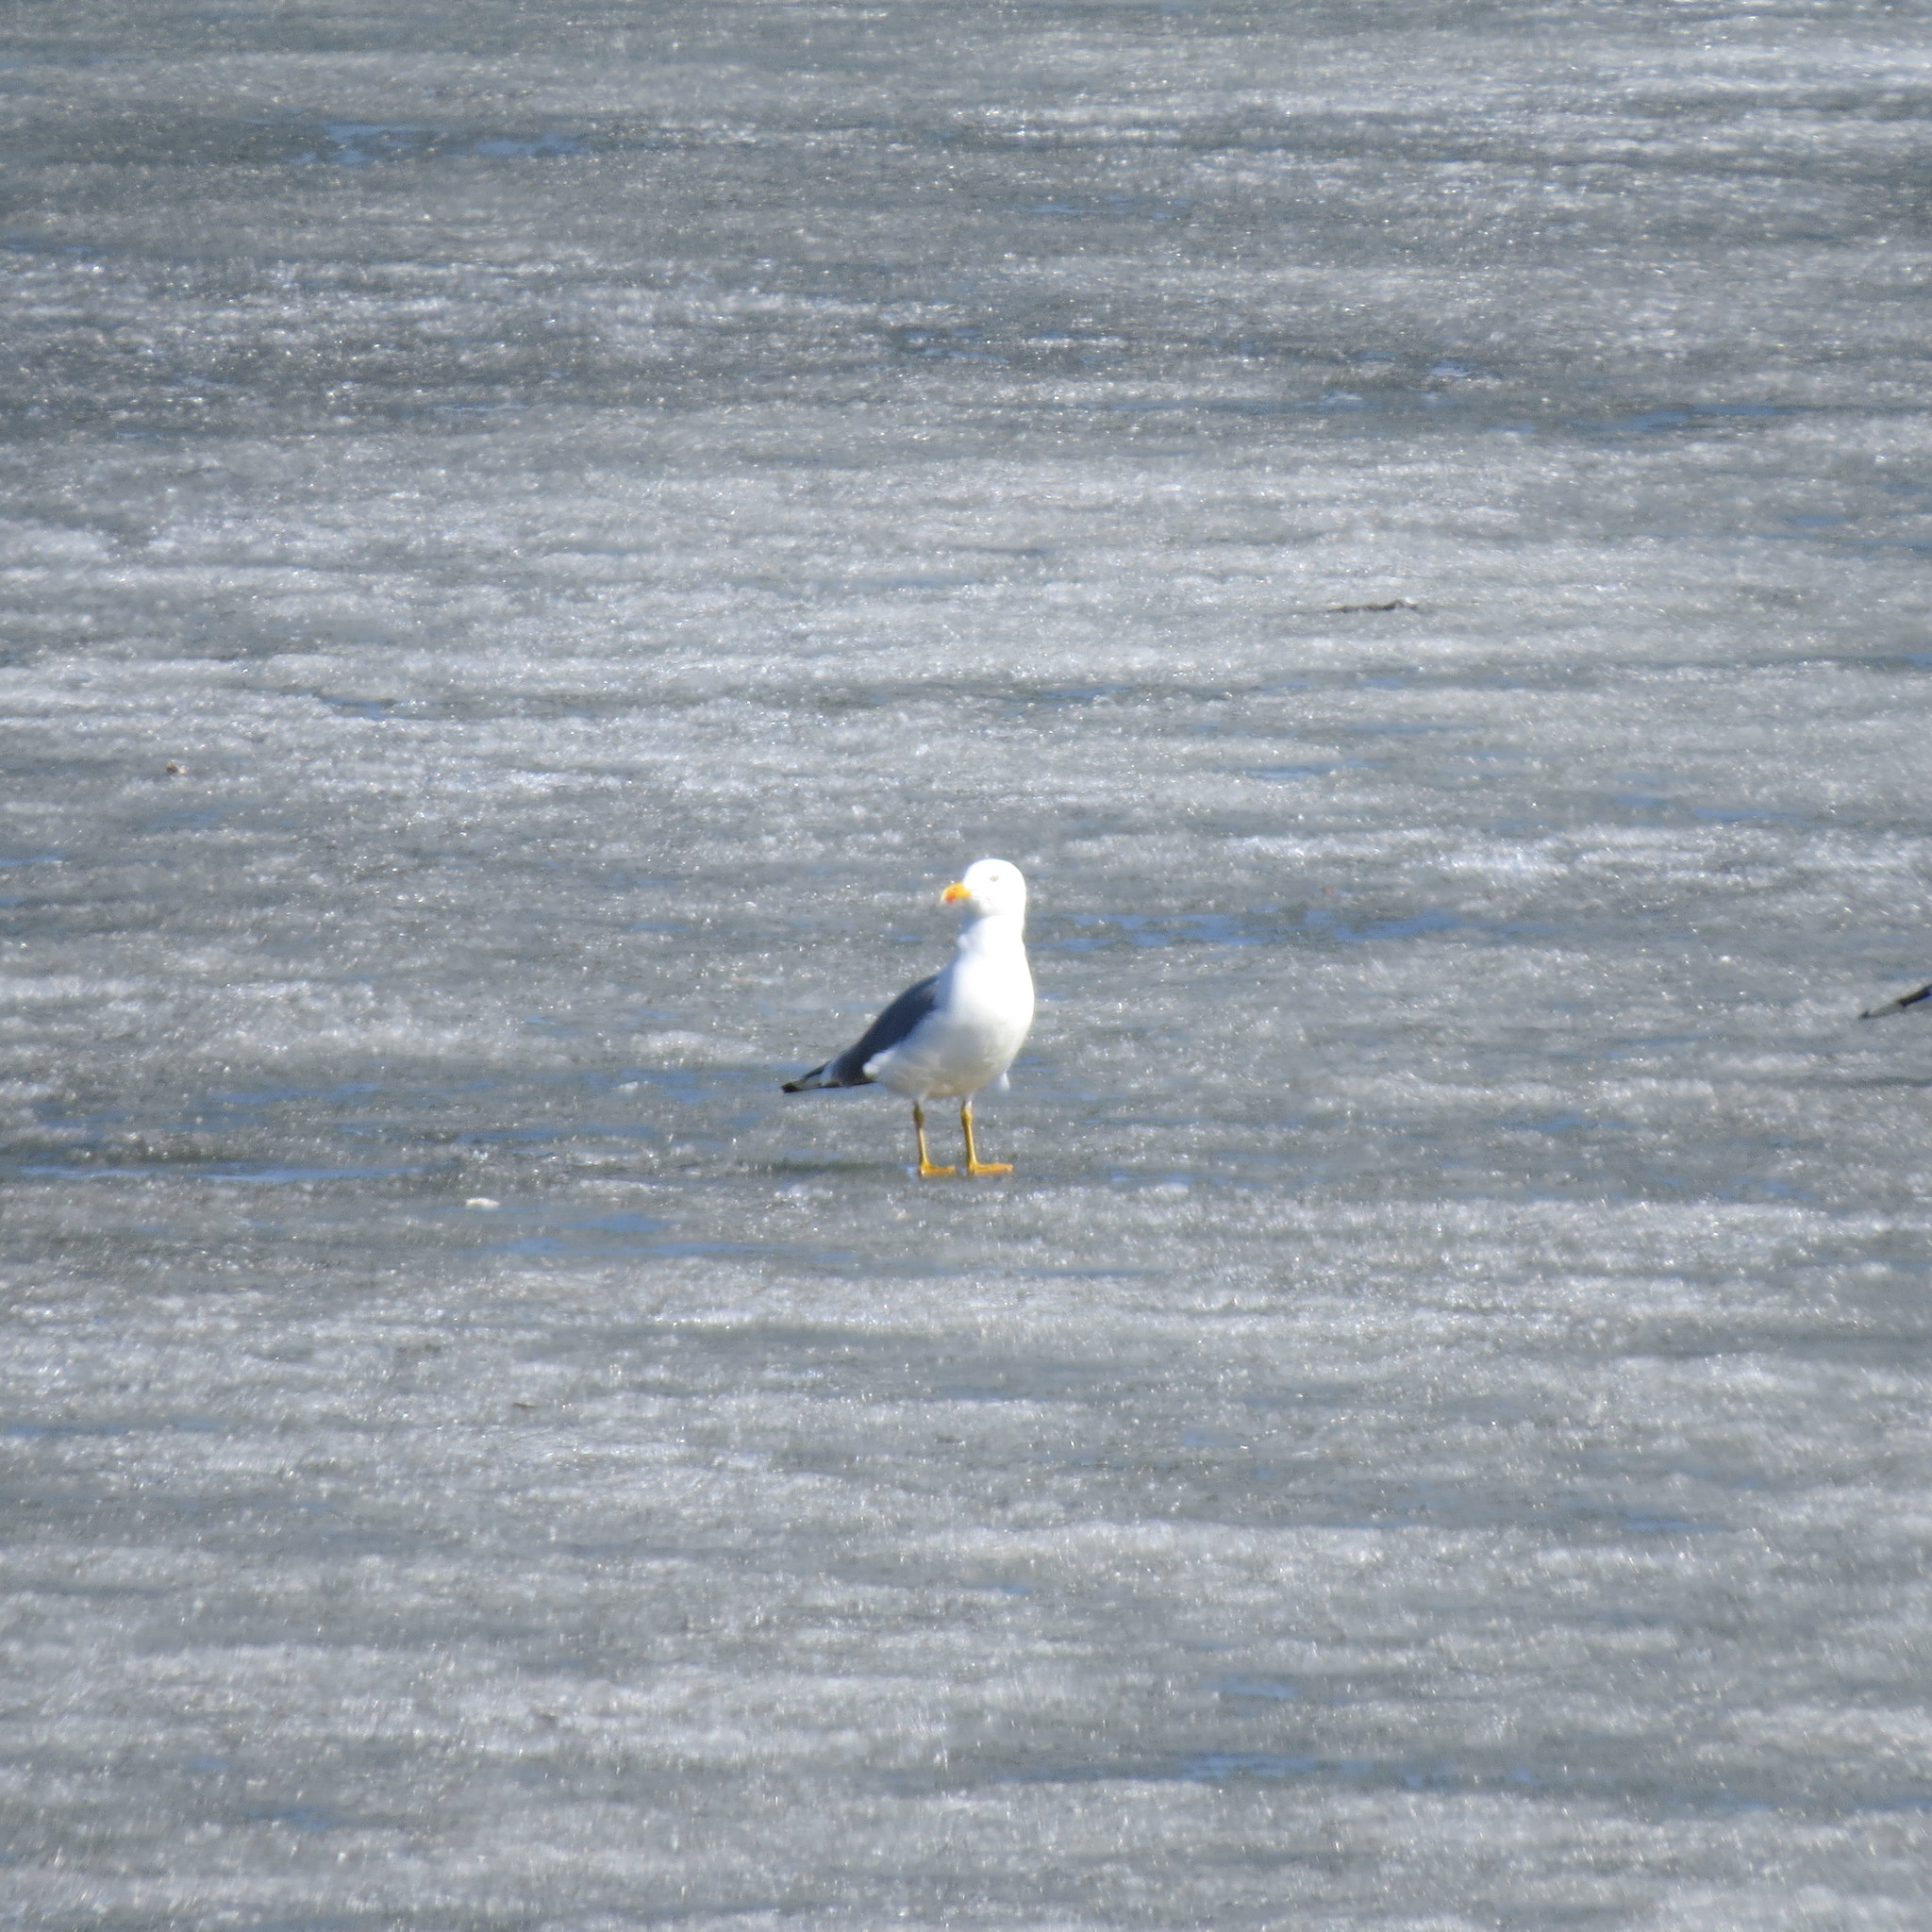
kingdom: Animalia
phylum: Chordata
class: Aves
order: Charadriiformes
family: Laridae
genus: Larus
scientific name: Larus fuscus
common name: Lesser black-backed gull
